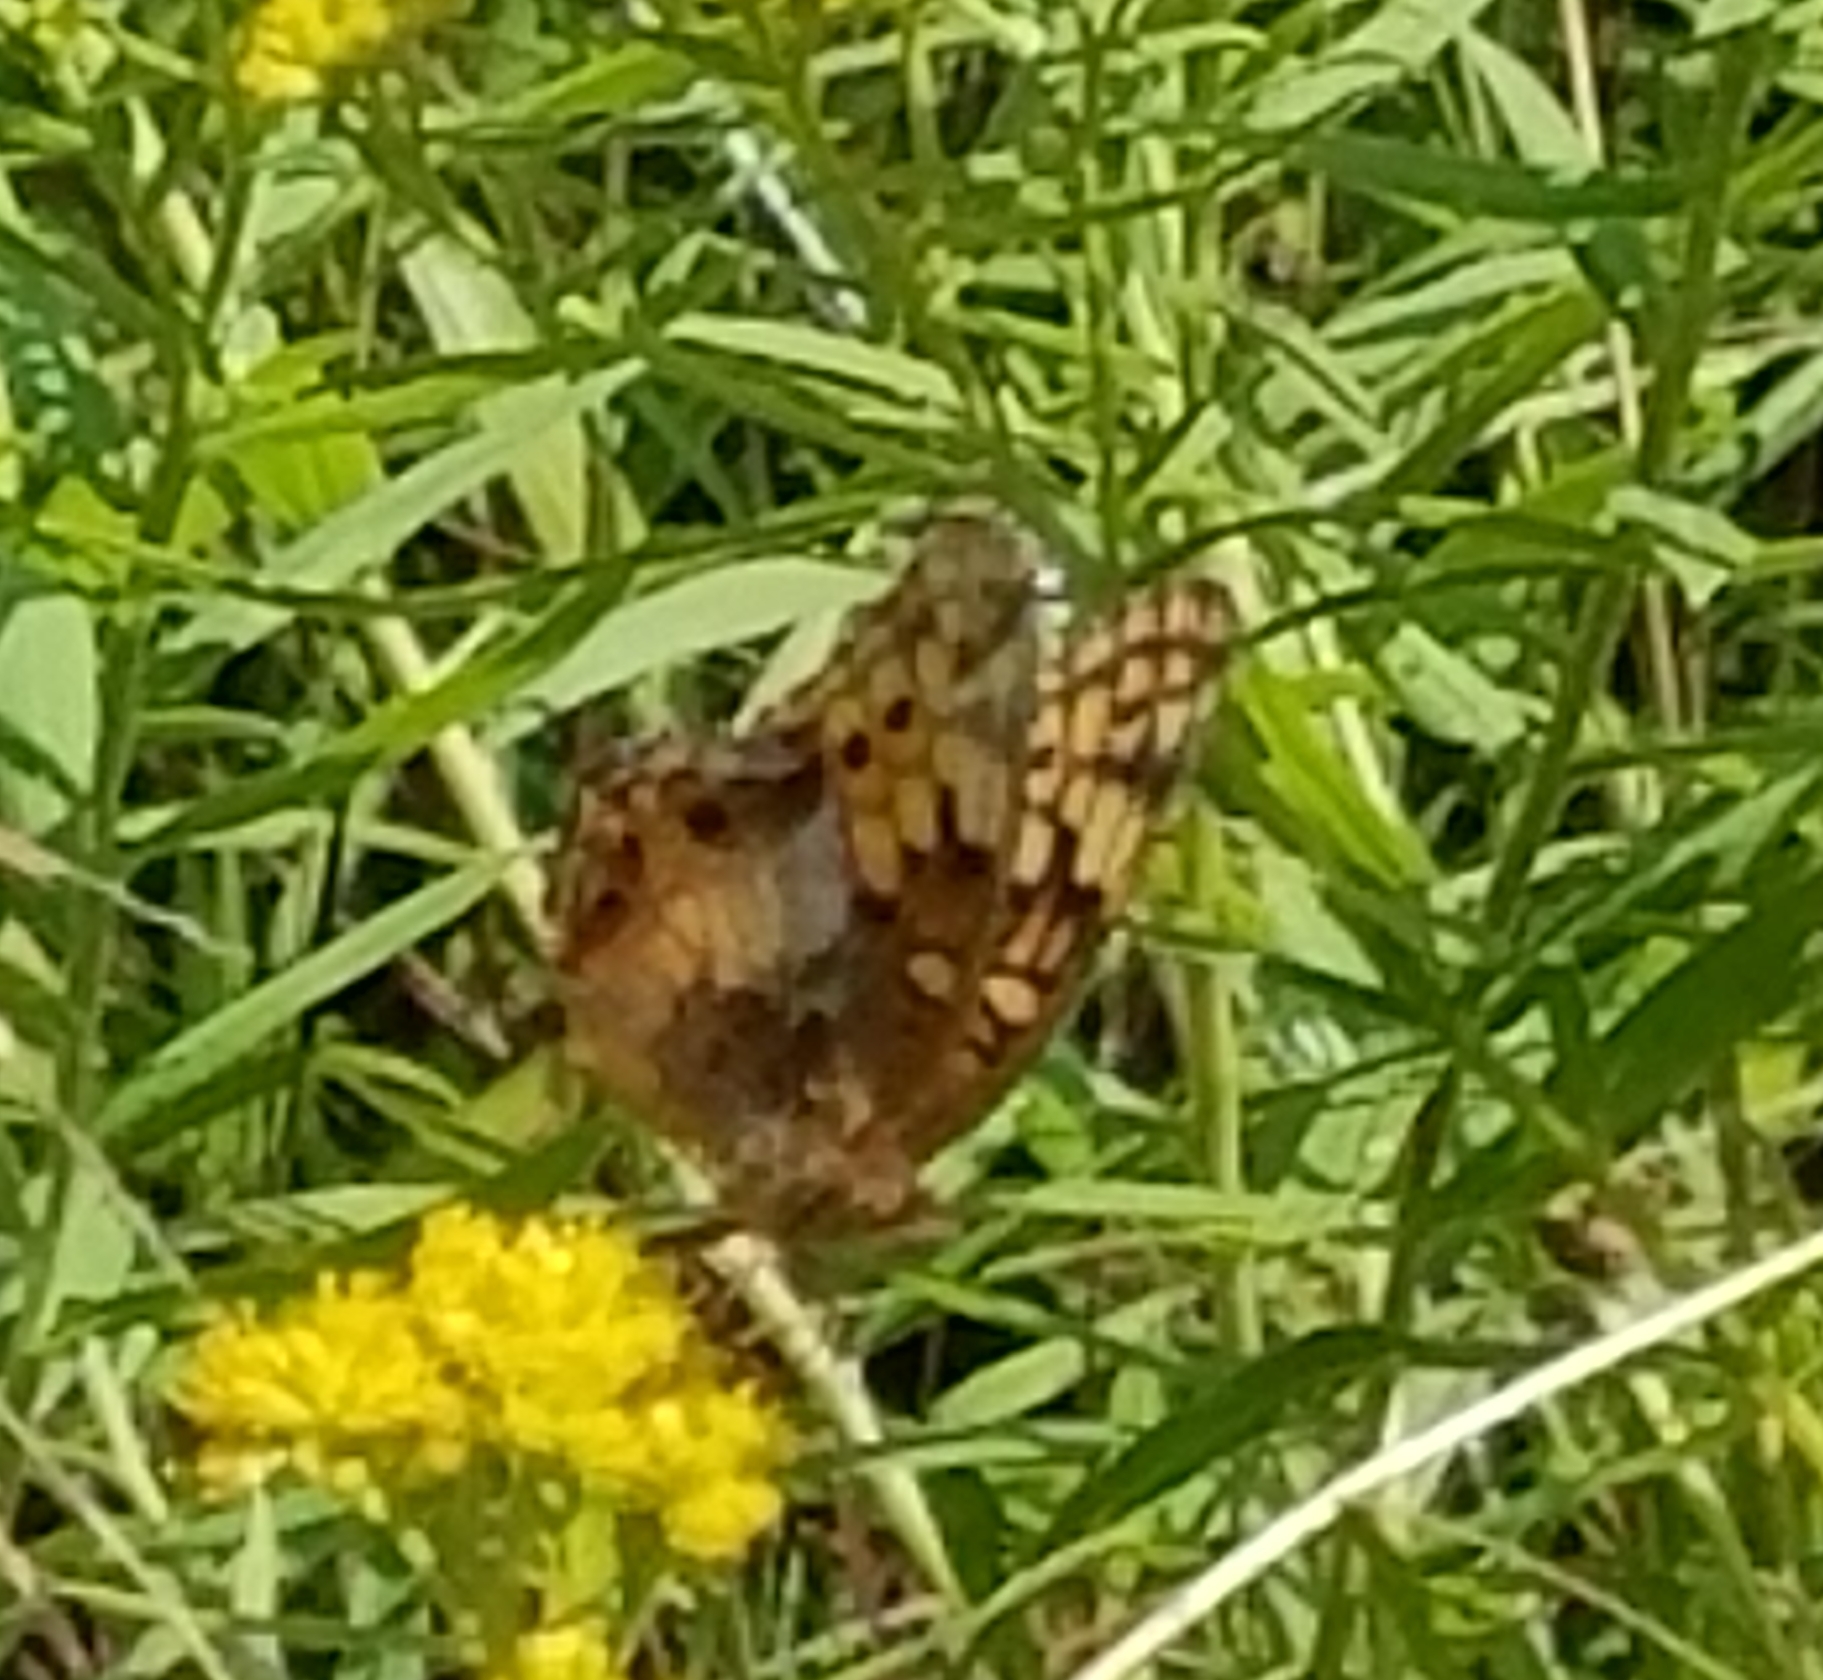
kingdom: Animalia
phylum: Arthropoda
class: Insecta
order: Lepidoptera
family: Nymphalidae
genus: Euptoieta
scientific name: Euptoieta claudia
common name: Variegated fritillary
